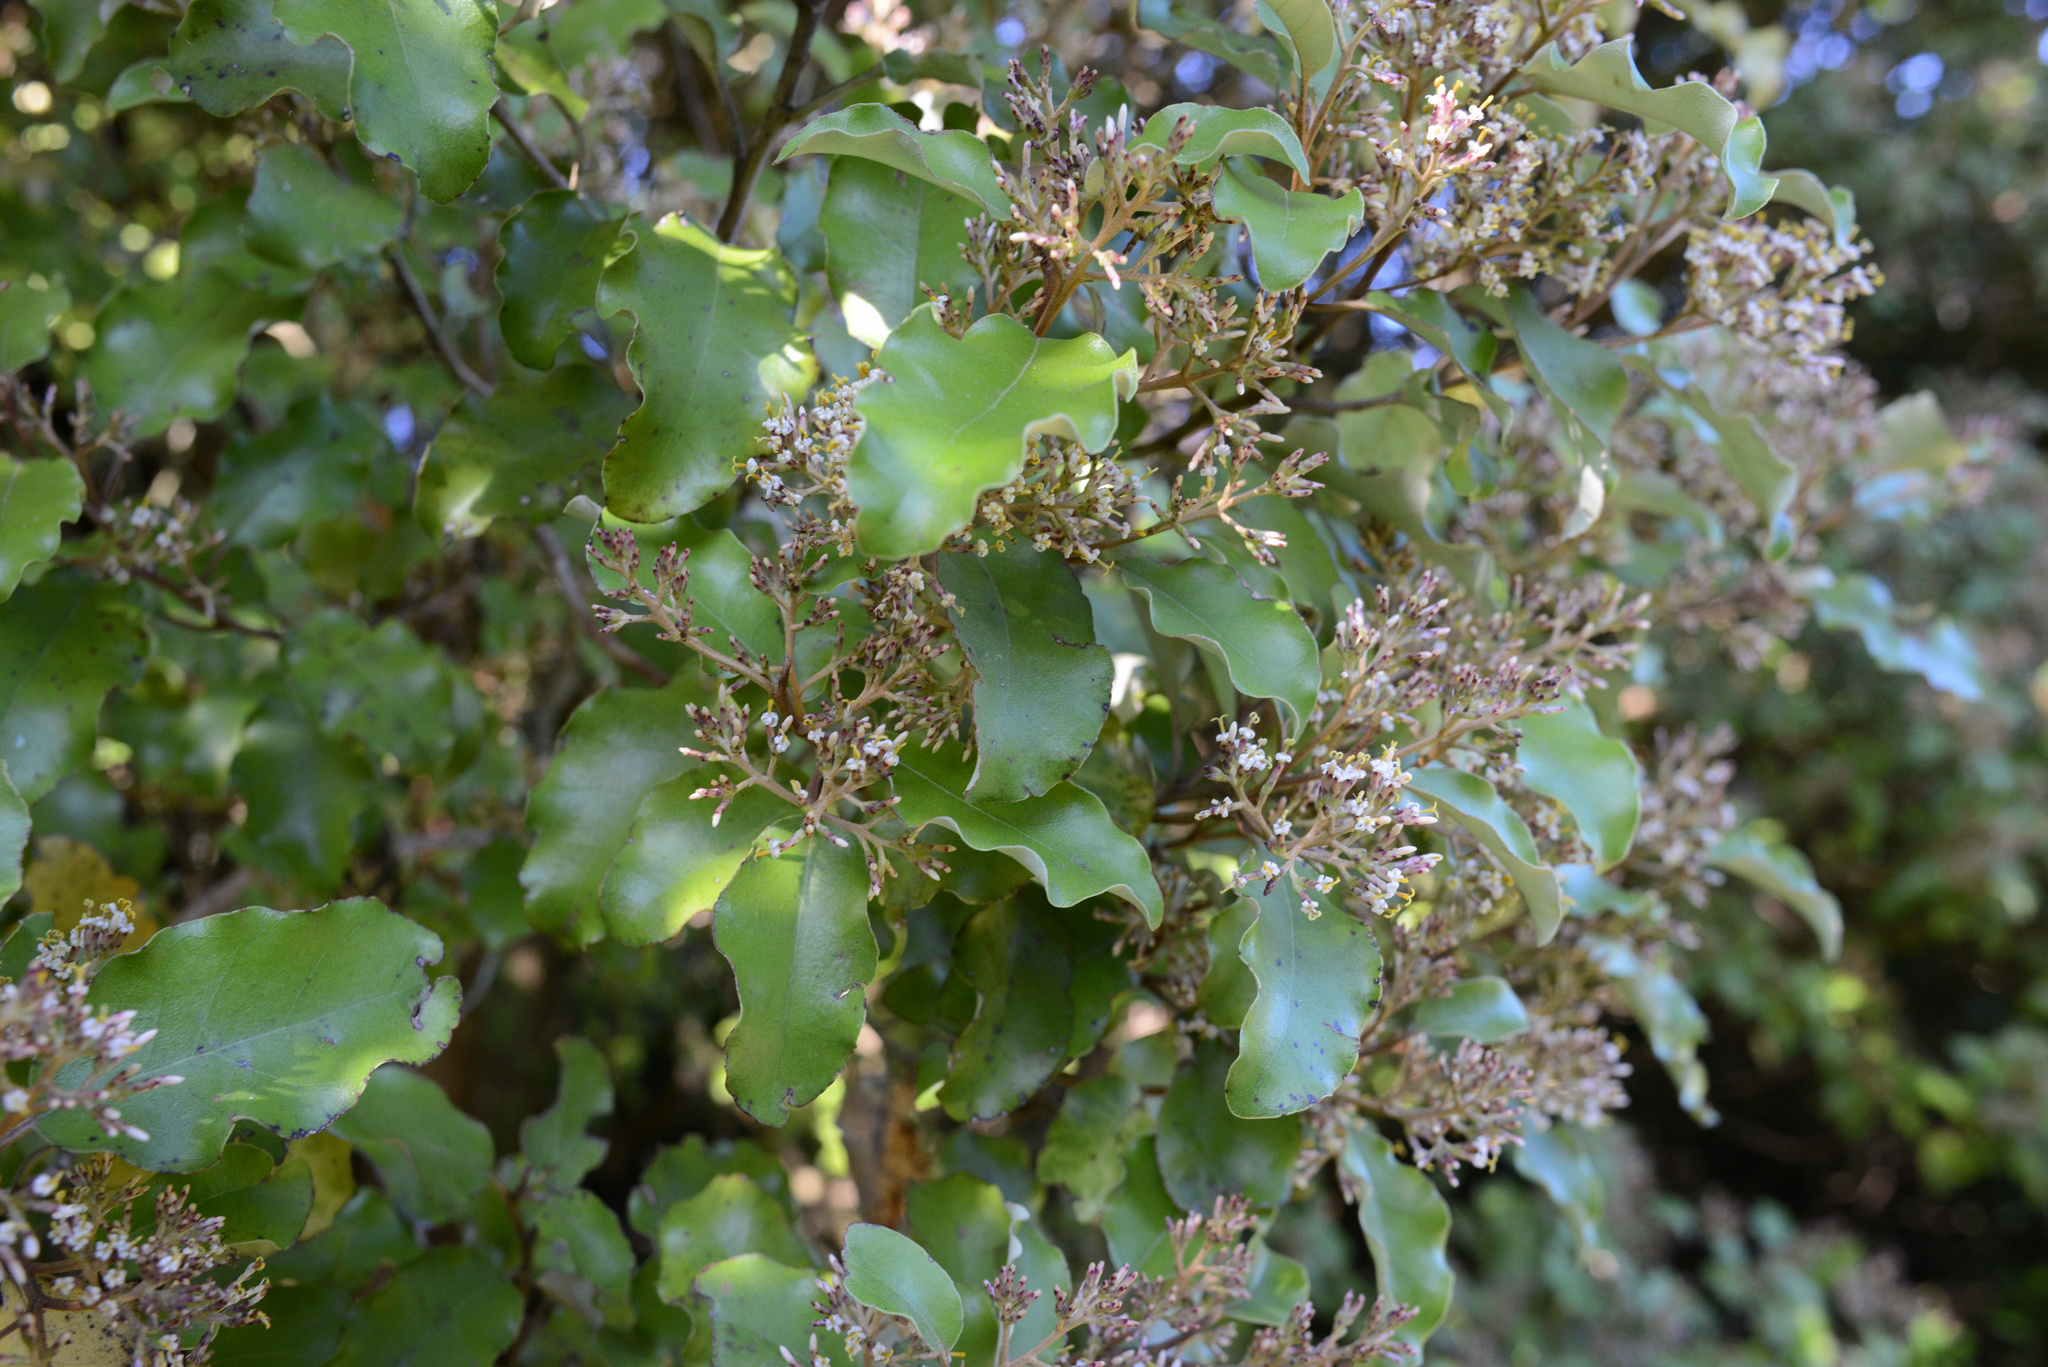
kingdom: Plantae
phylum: Tracheophyta
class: Magnoliopsida
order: Asterales
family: Asteraceae
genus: Olearia
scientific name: Olearia paniculata
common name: Akiraho
